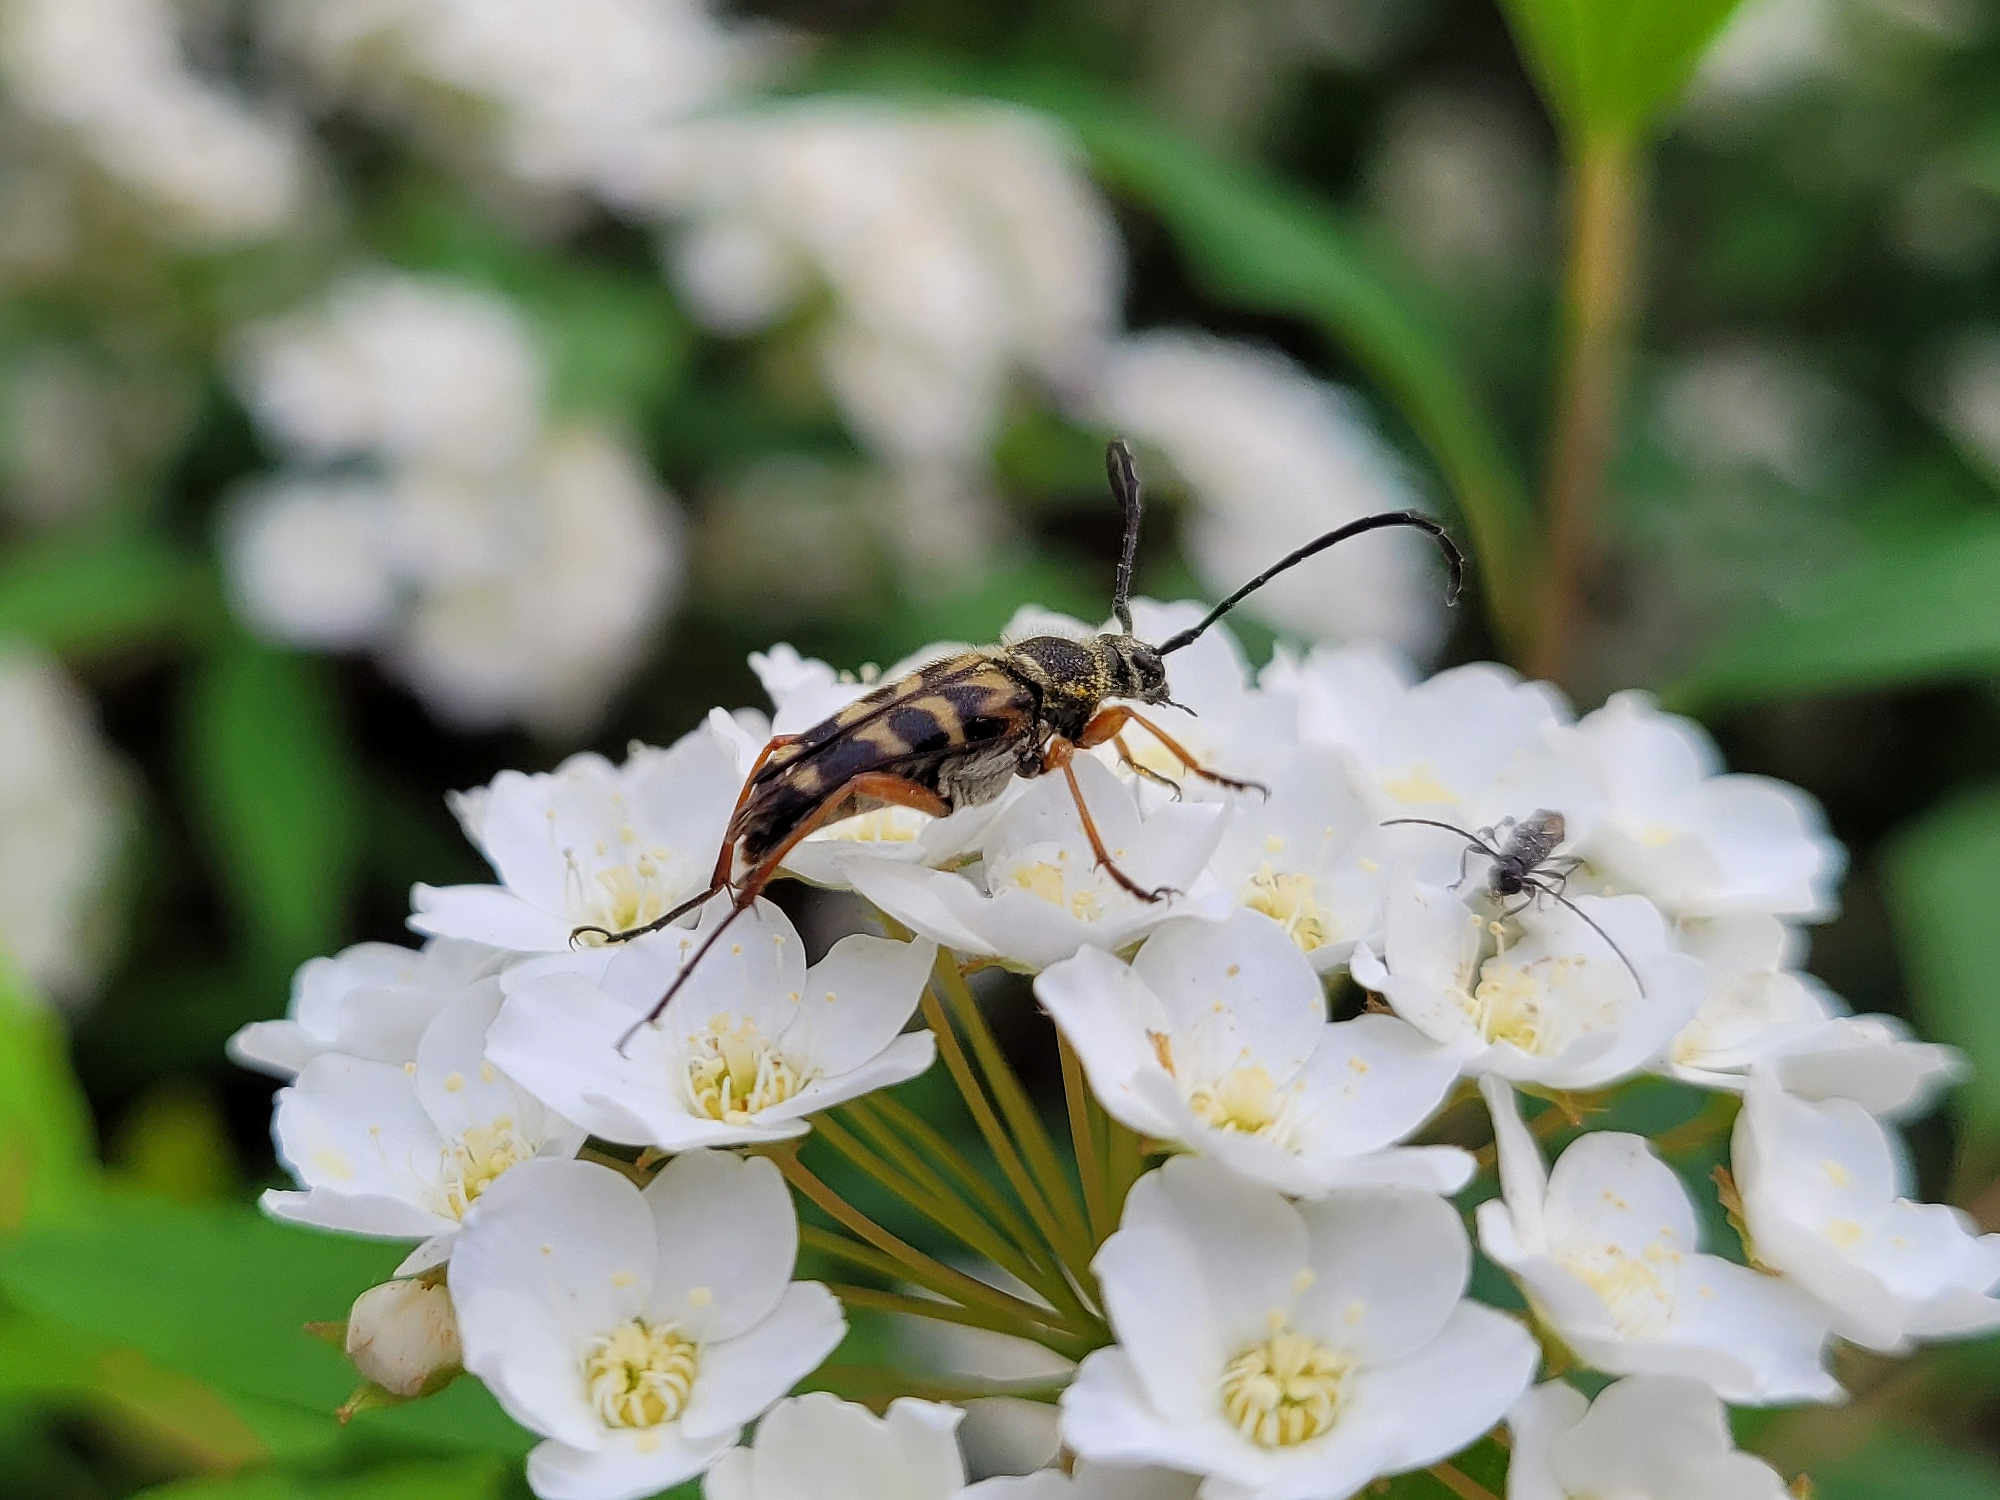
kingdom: Animalia
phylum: Arthropoda
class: Insecta
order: Coleoptera
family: Cerambycidae
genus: Typocerus
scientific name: Typocerus zebra
